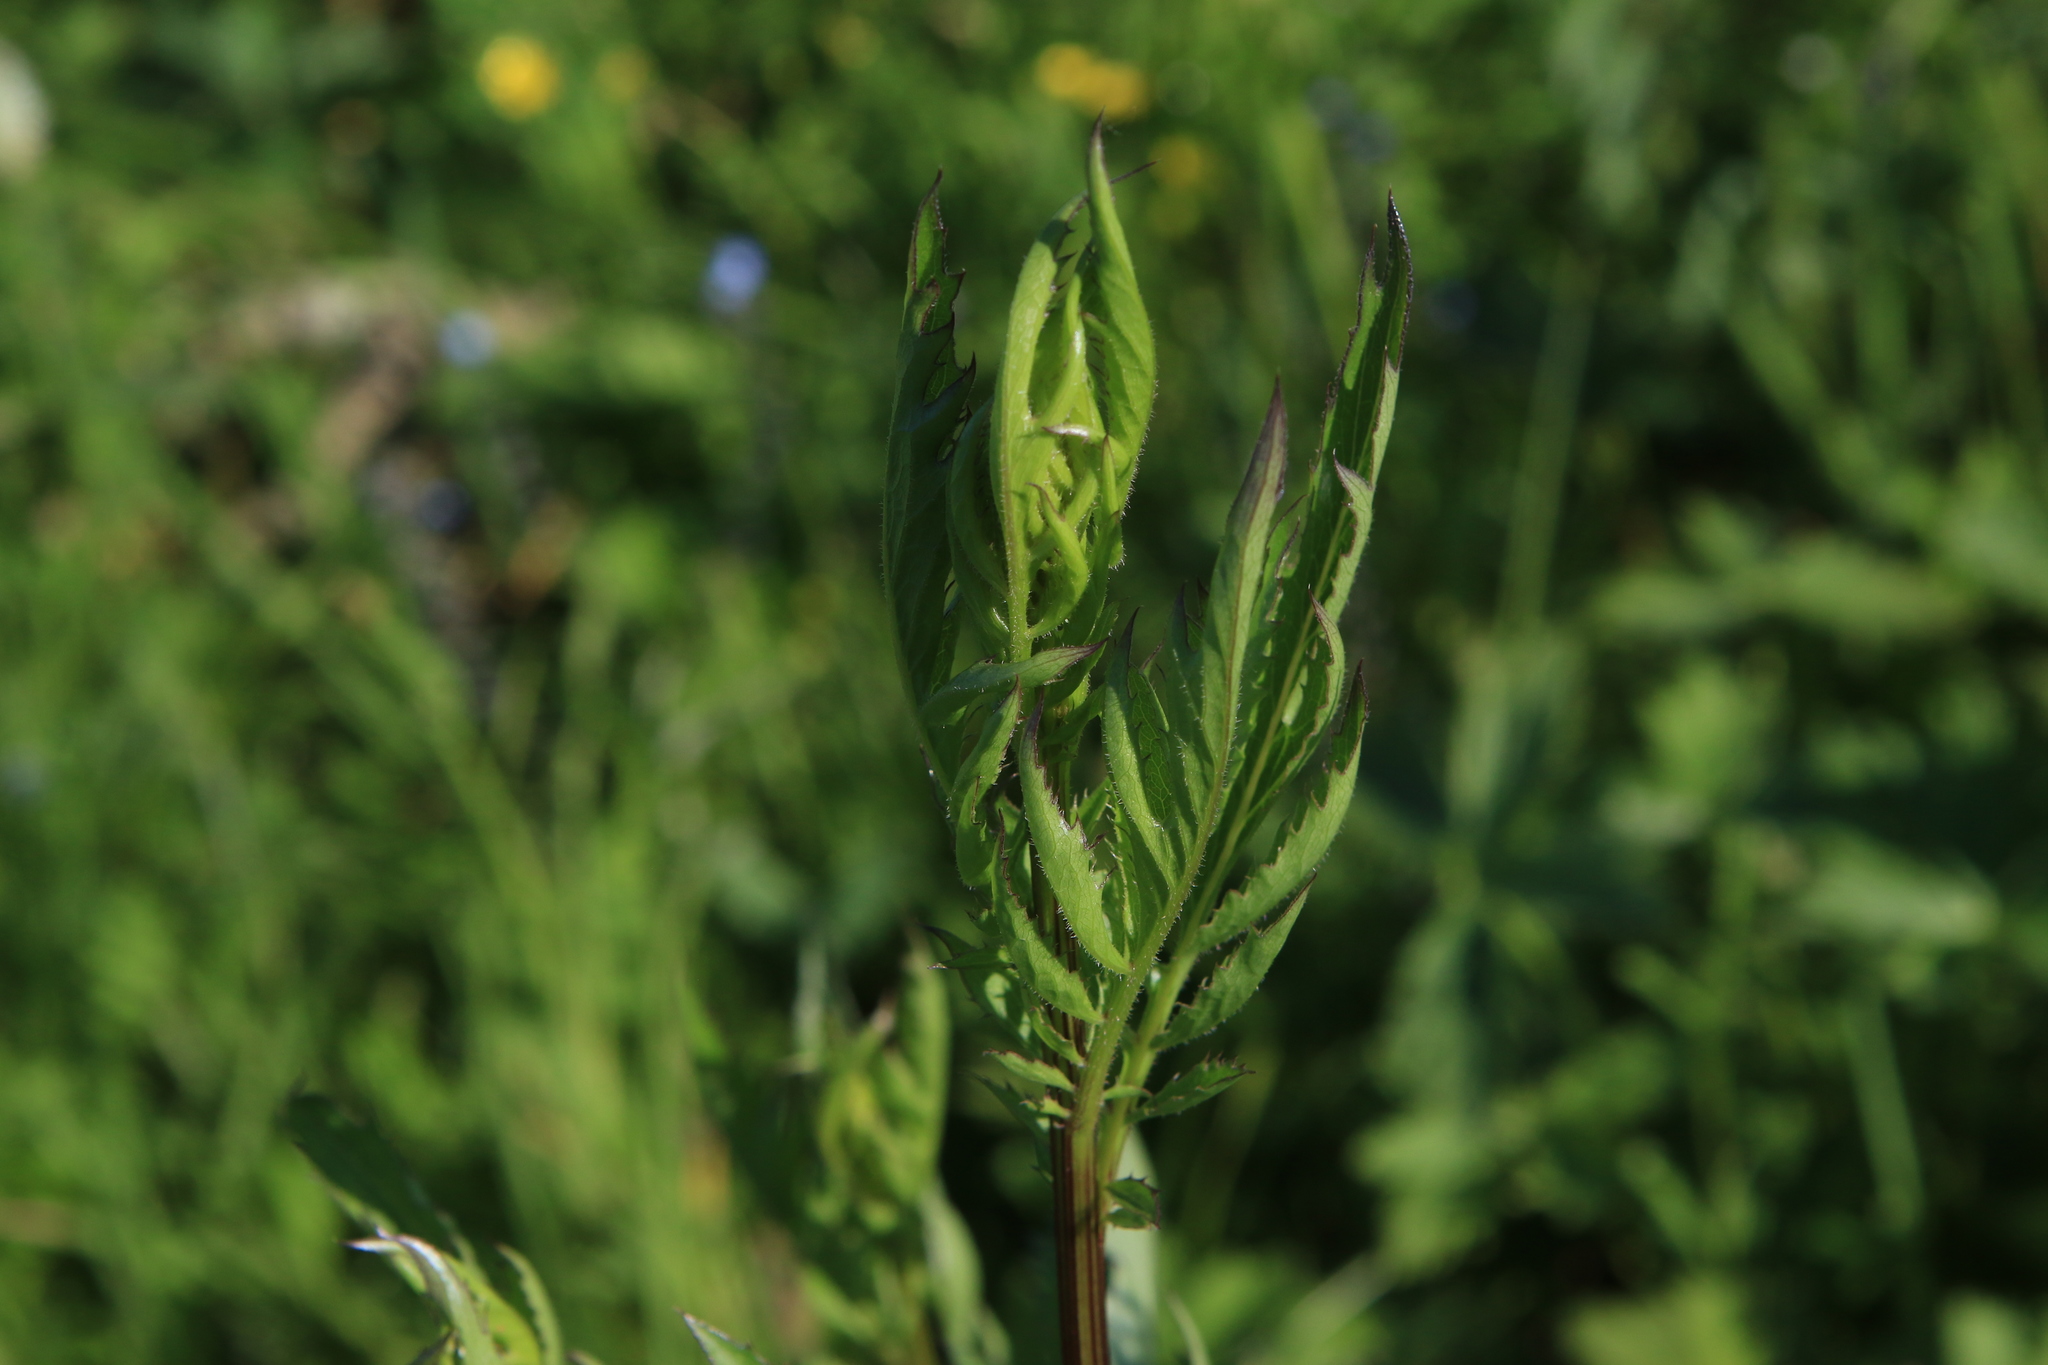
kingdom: Plantae
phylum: Tracheophyta
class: Magnoliopsida
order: Dipsacales
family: Caprifoliaceae
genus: Valeriana
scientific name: Valeriana officinalis
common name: Common valerian
